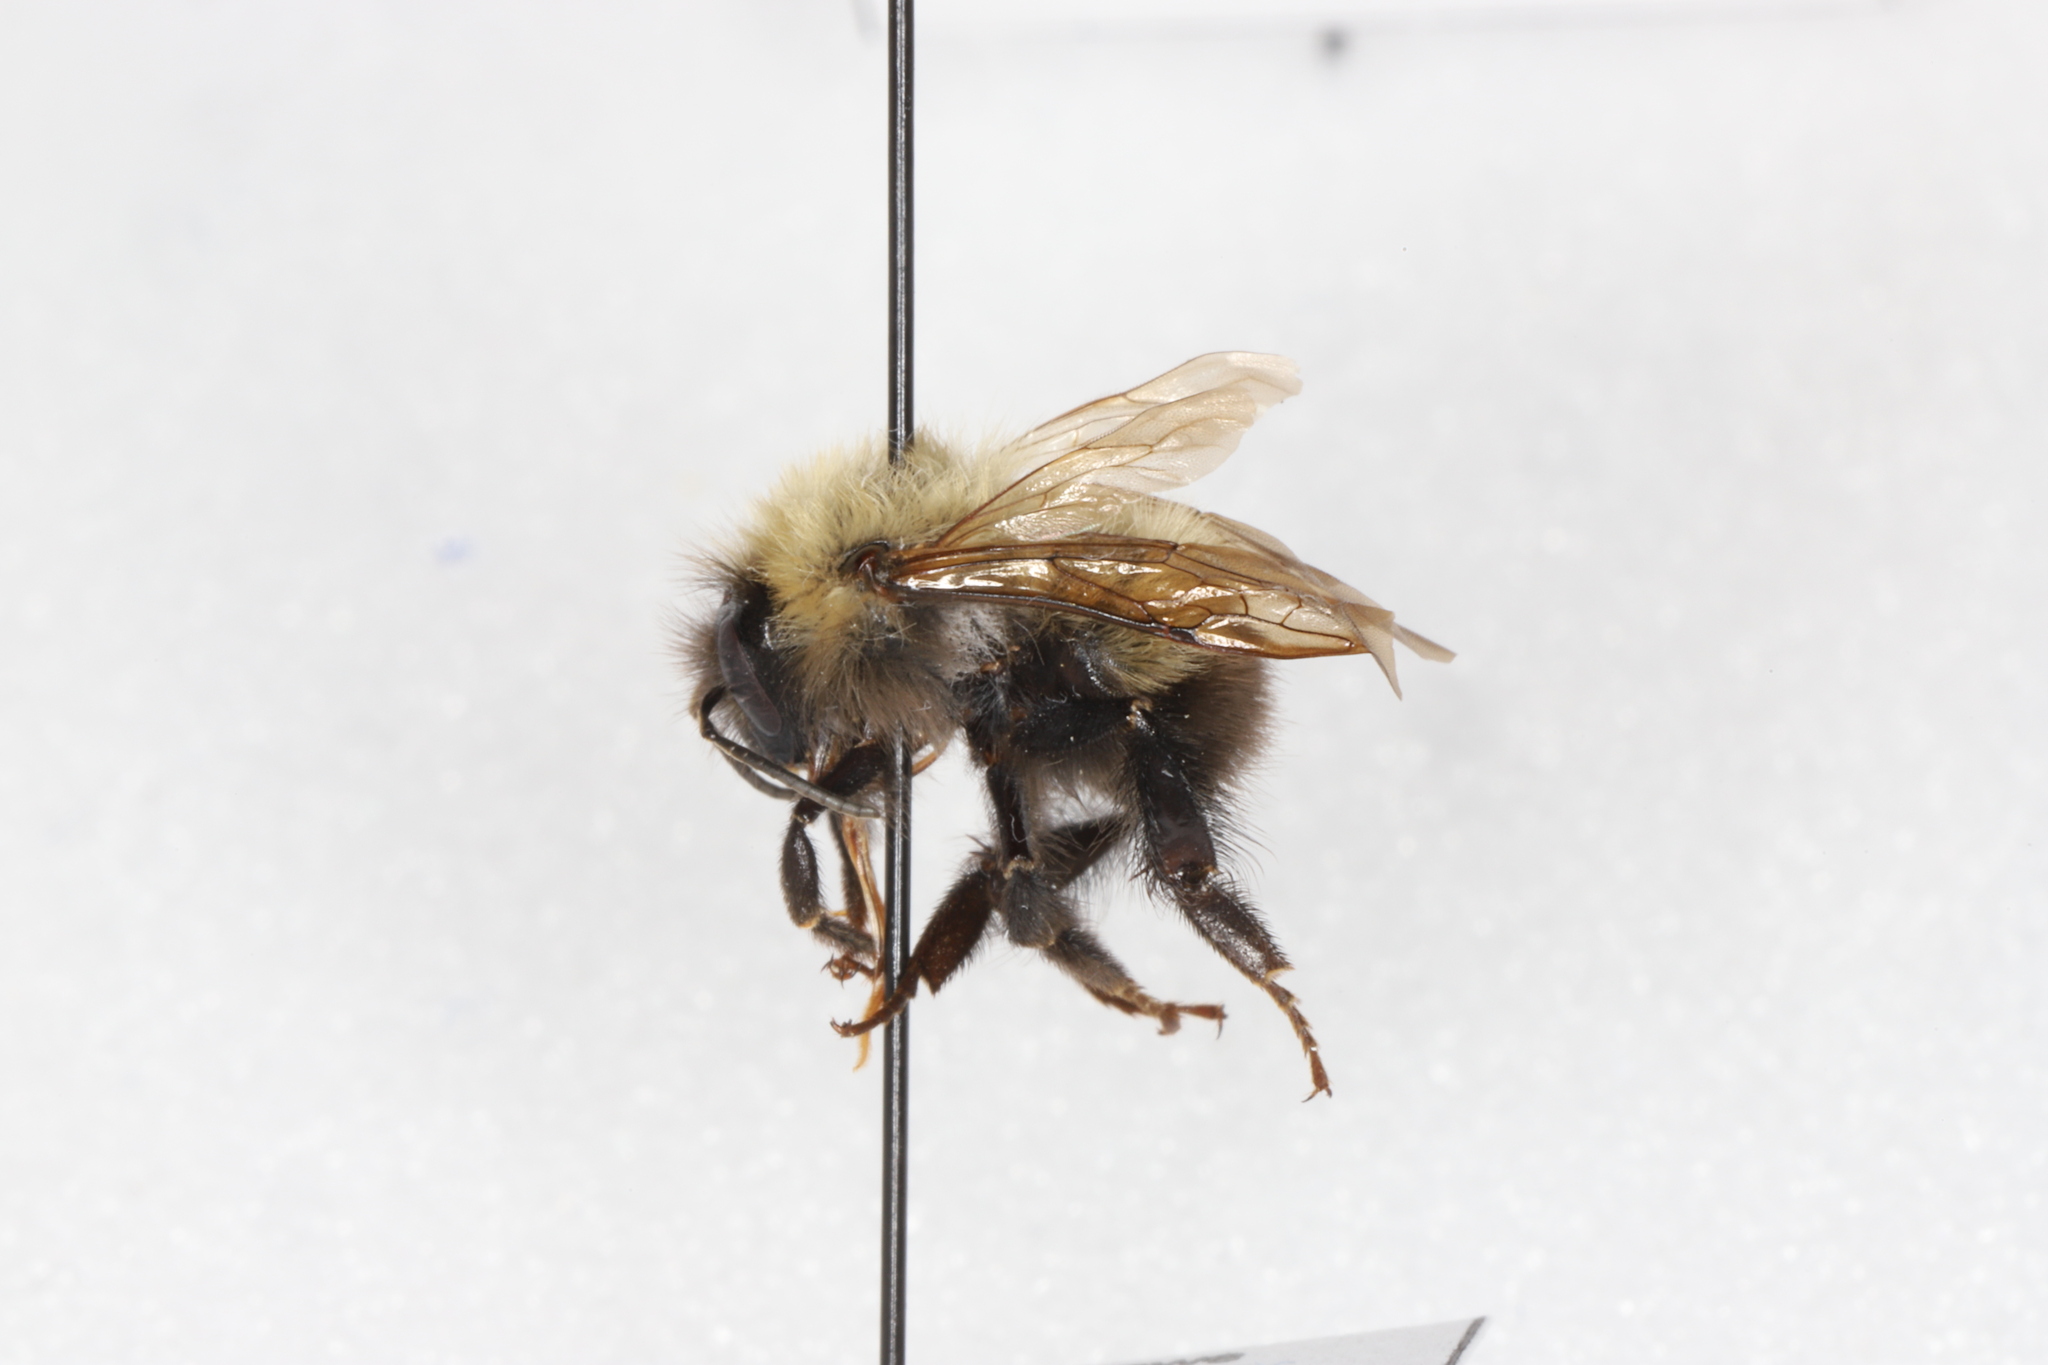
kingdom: Animalia
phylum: Arthropoda
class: Insecta
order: Hymenoptera
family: Apidae
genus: Bombus
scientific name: Bombus perplexus
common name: Confusing bumble bee
